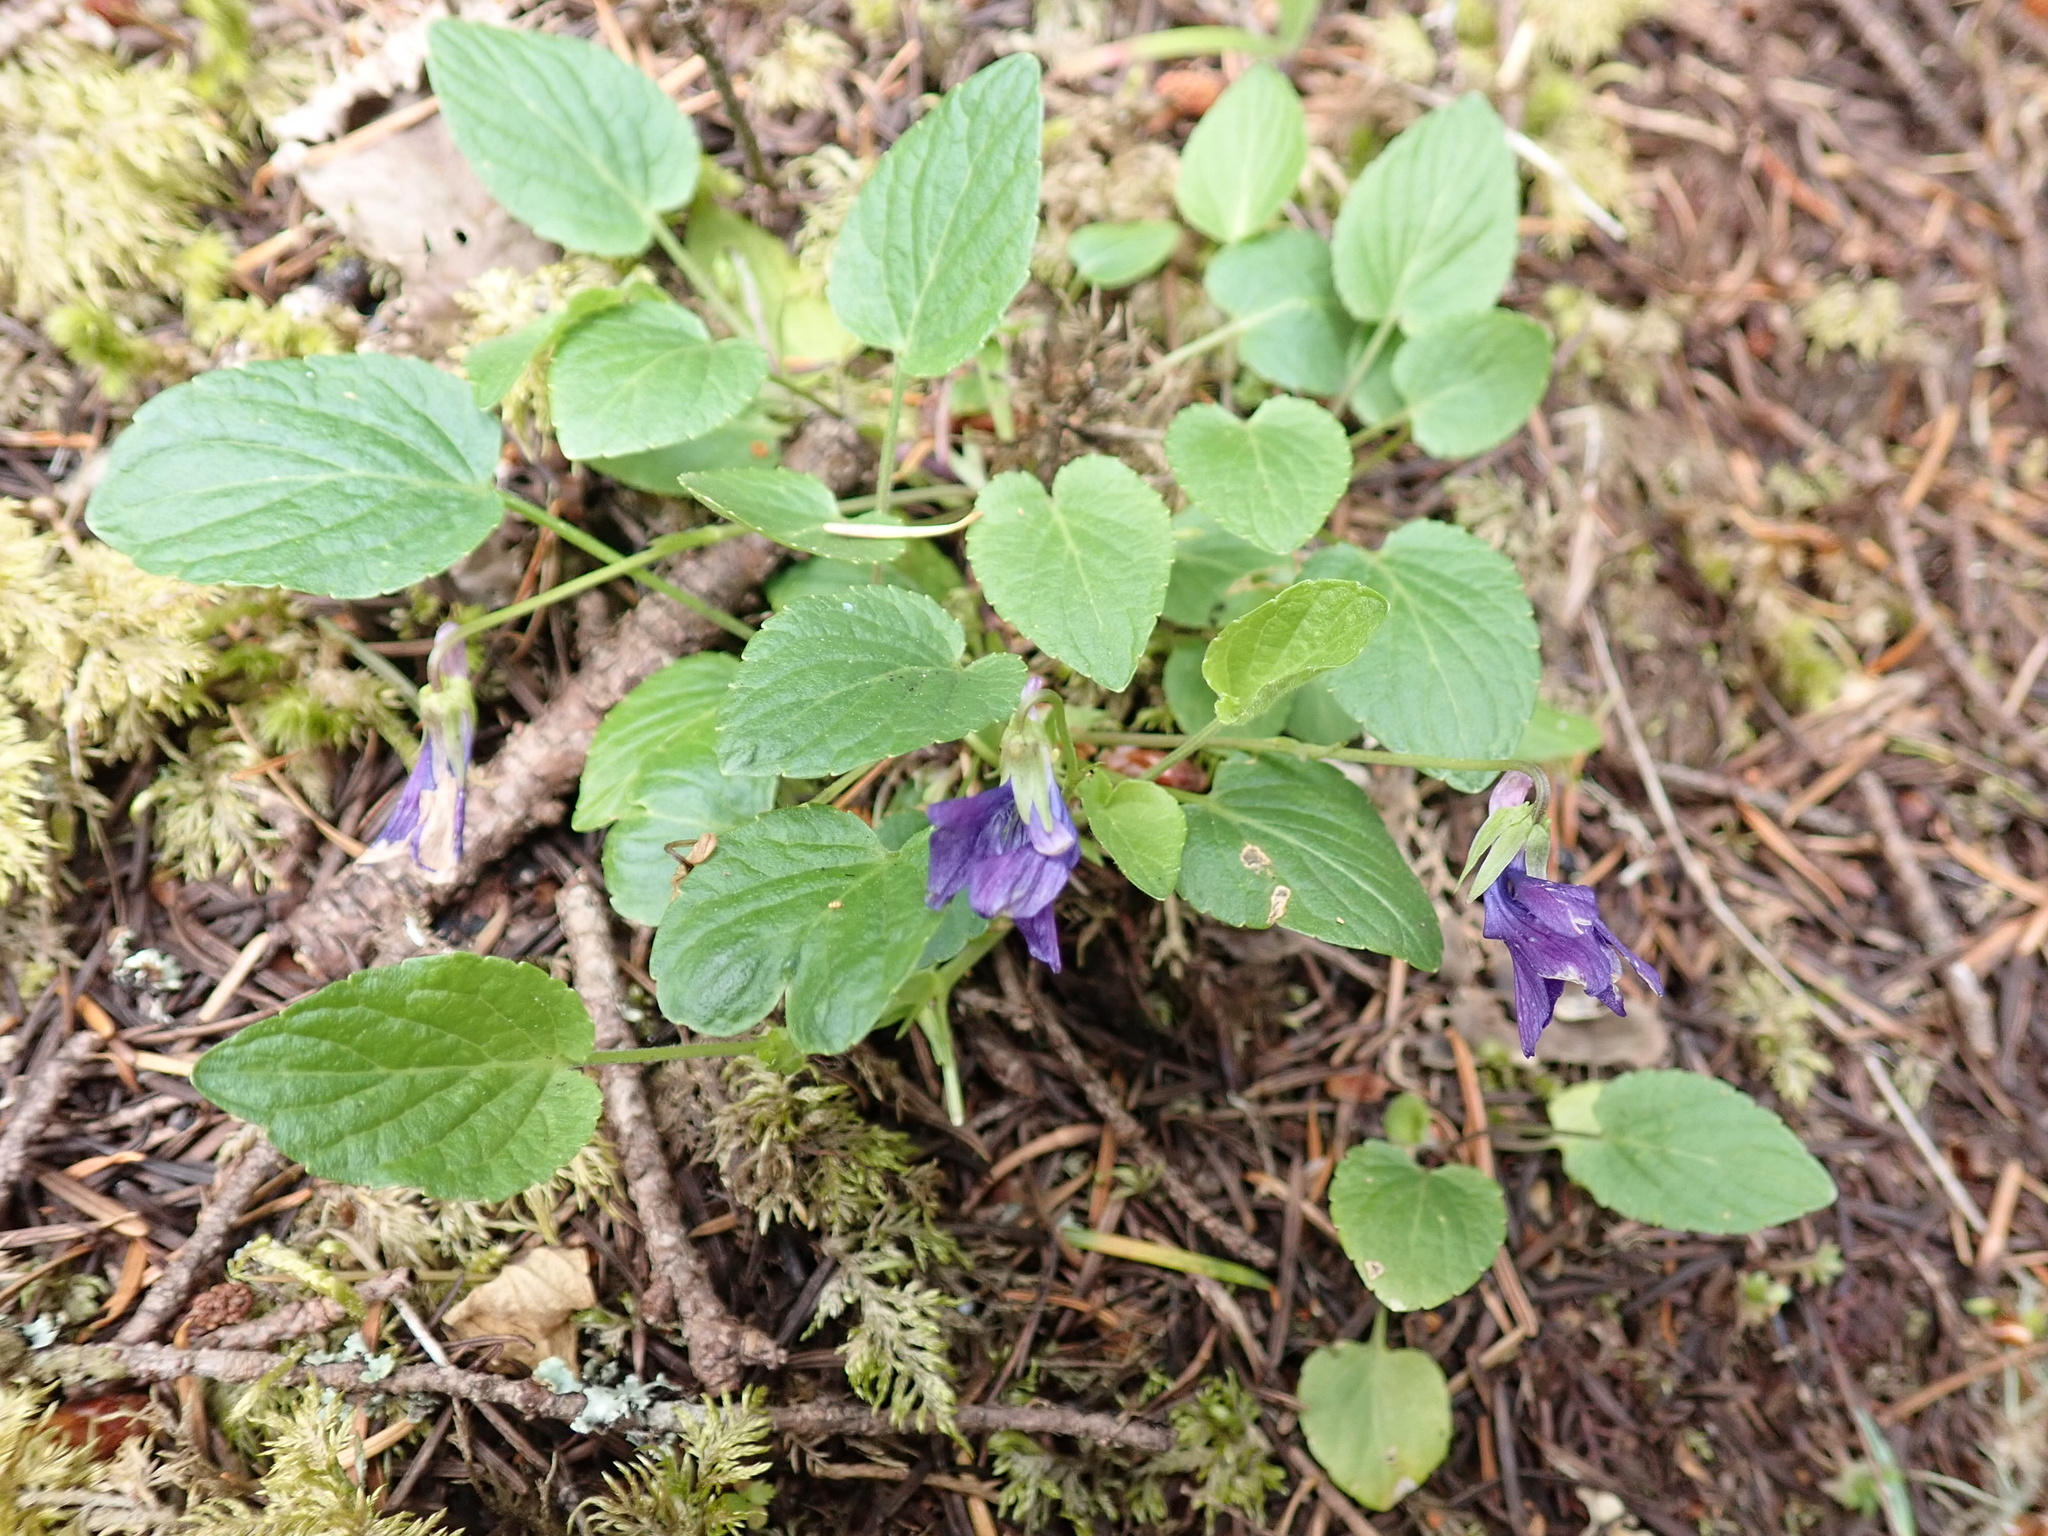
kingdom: Plantae
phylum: Tracheophyta
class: Magnoliopsida
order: Malpighiales
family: Violaceae
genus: Viola
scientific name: Viola adunca
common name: Sand violet
